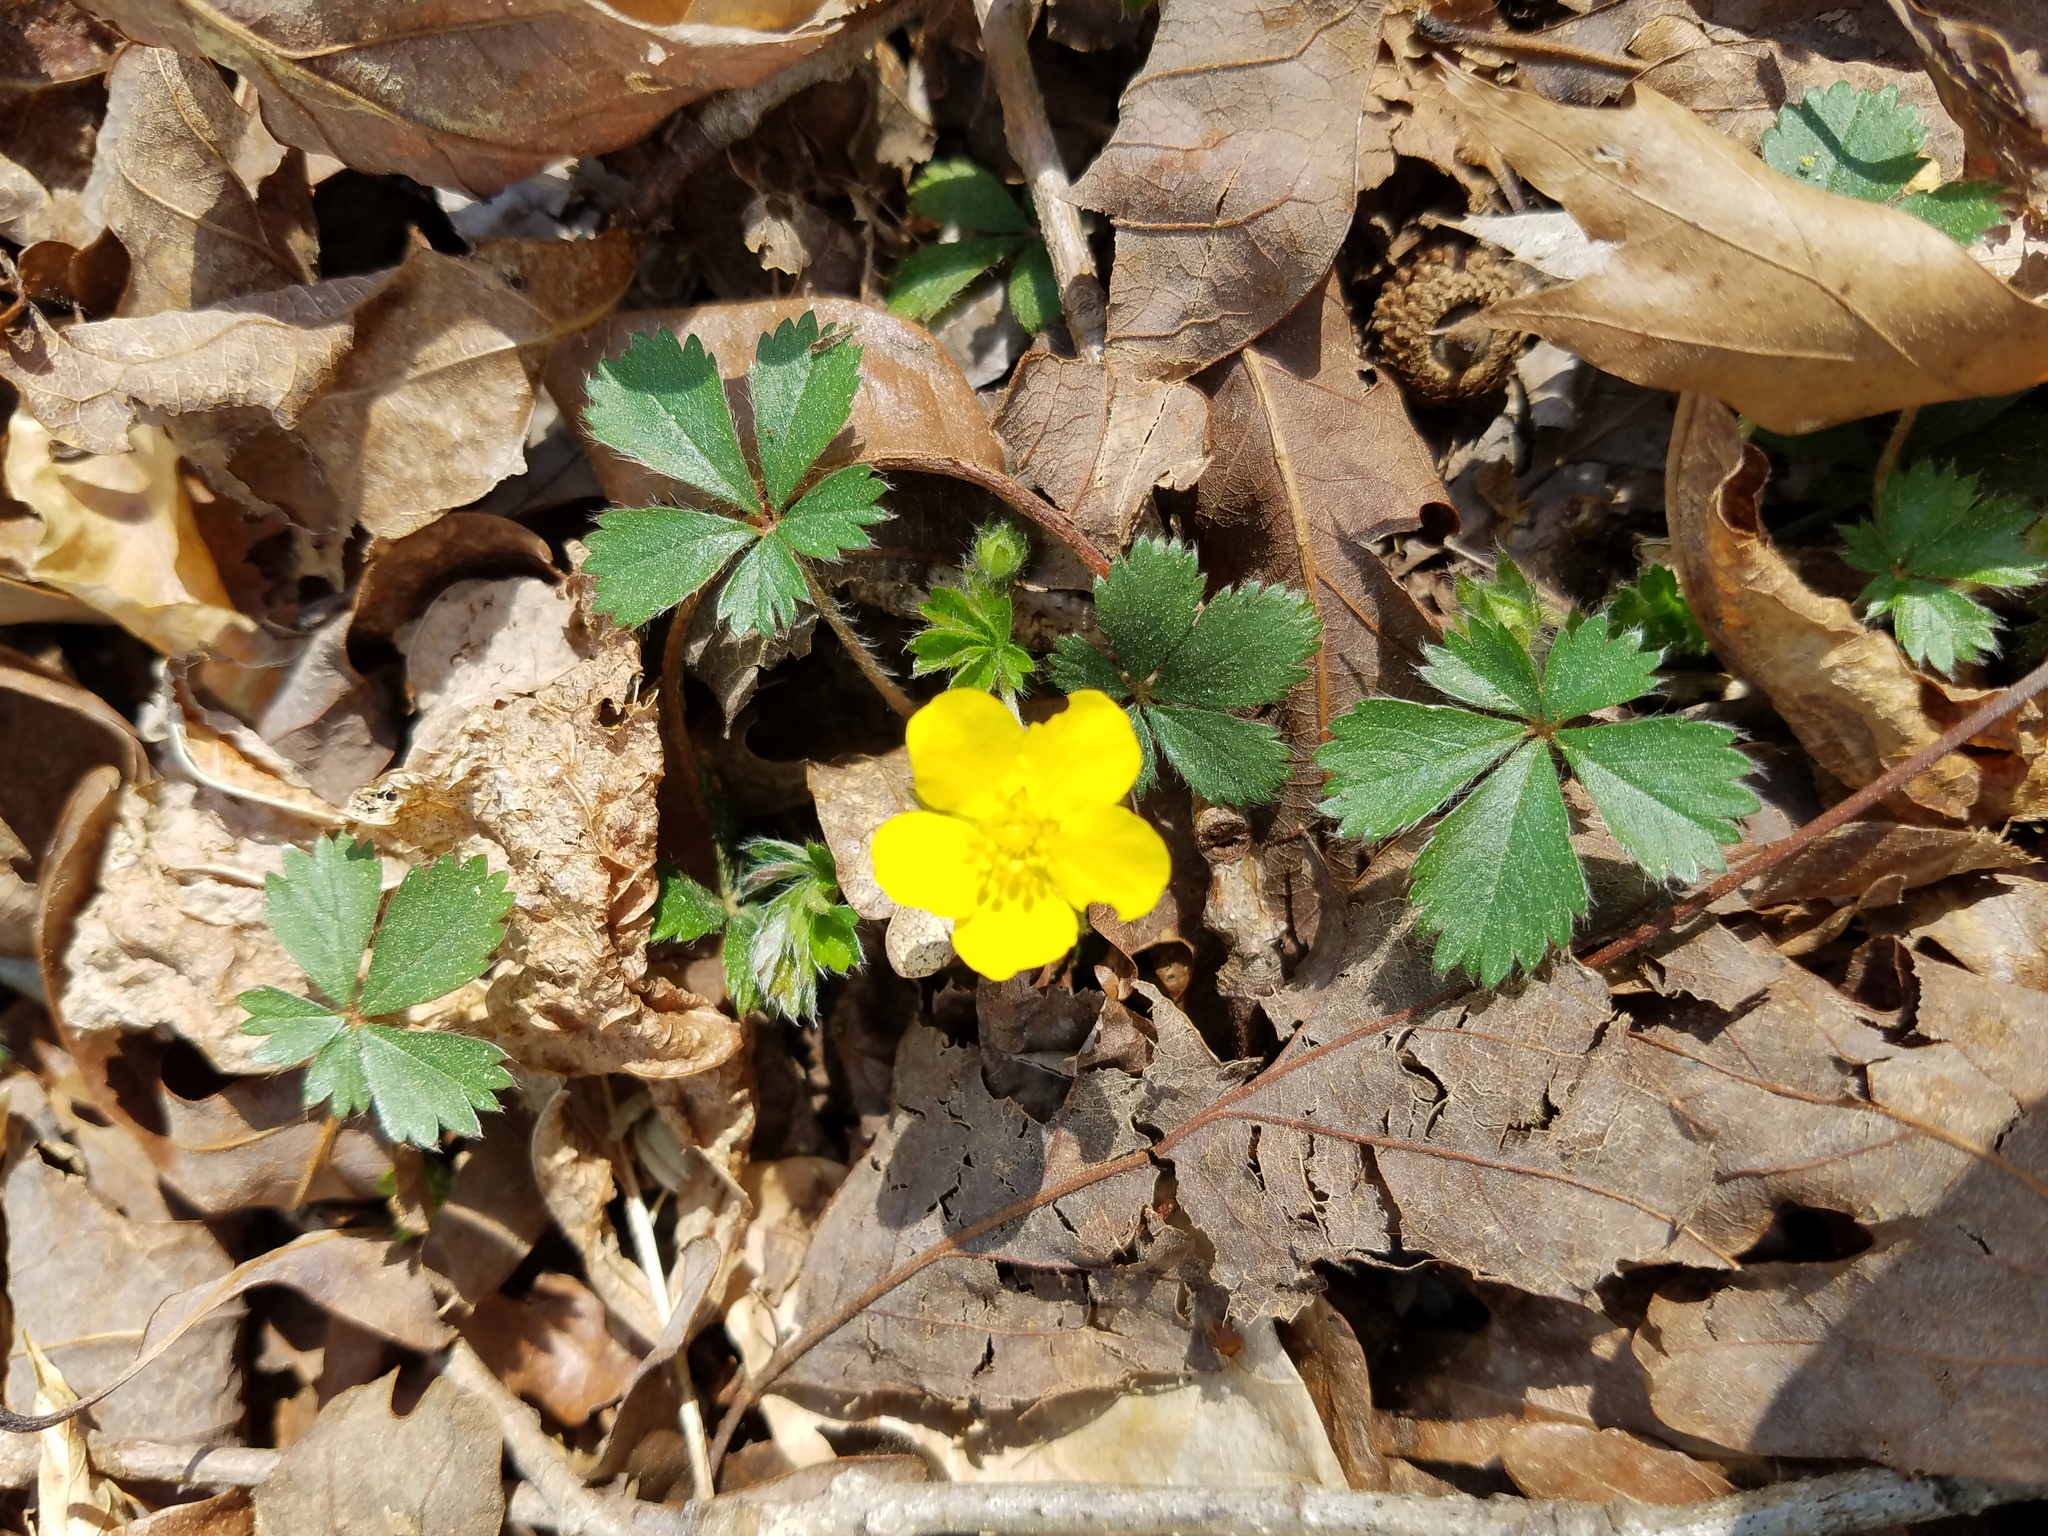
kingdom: Plantae
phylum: Tracheophyta
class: Magnoliopsida
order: Rosales
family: Rosaceae
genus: Potentilla
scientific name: Potentilla canadensis
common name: Canada cinquefoil
